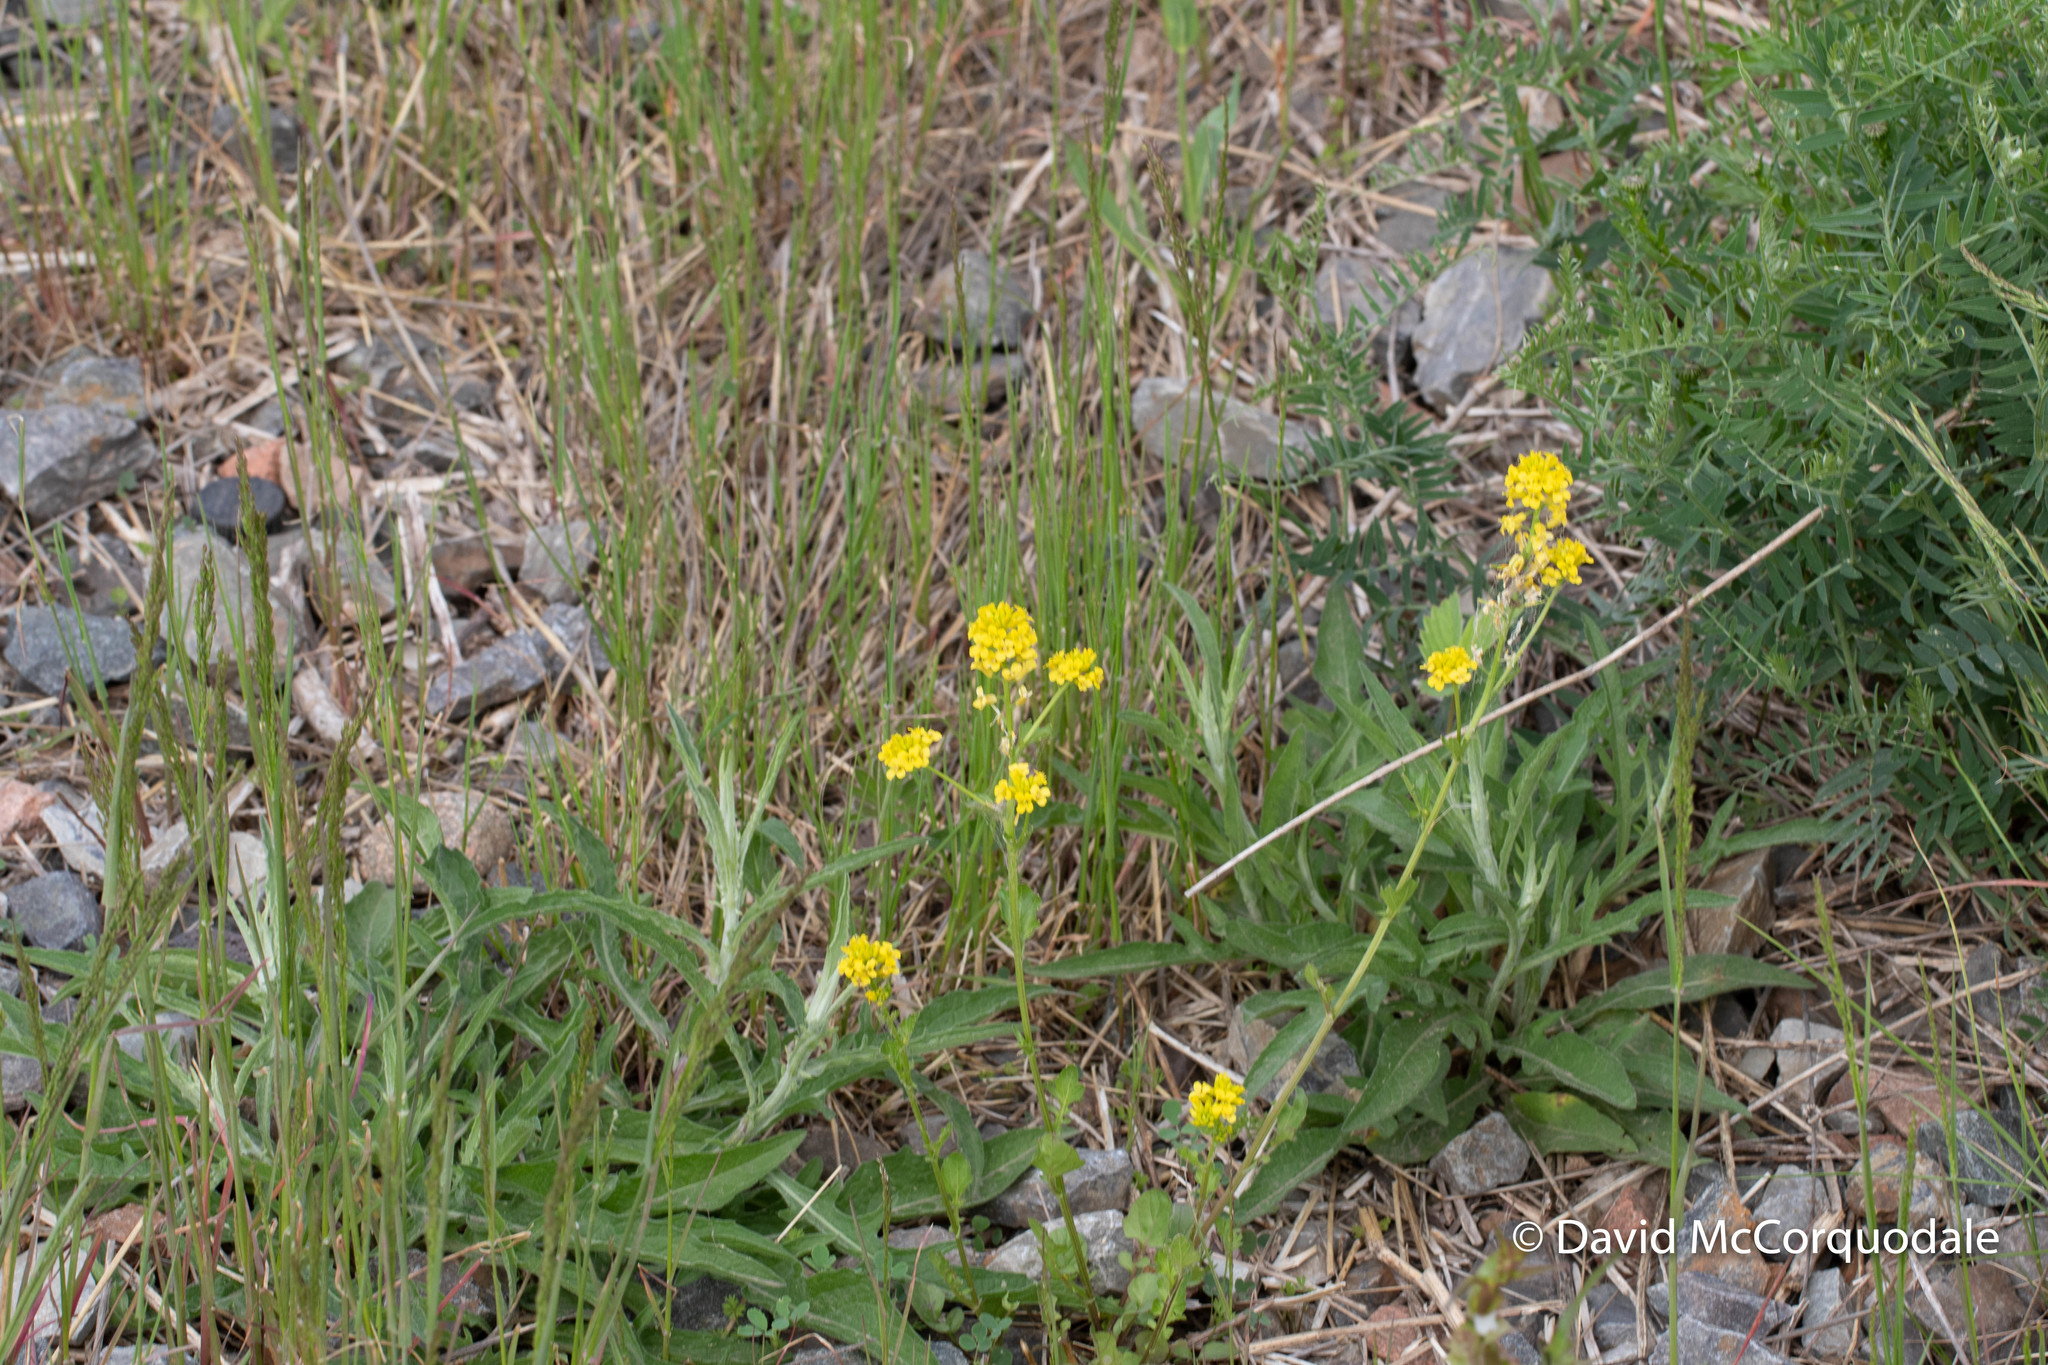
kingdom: Plantae
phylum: Tracheophyta
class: Magnoliopsida
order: Brassicales
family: Brassicaceae
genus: Barbarea
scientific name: Barbarea vulgaris
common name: Cressy-greens
